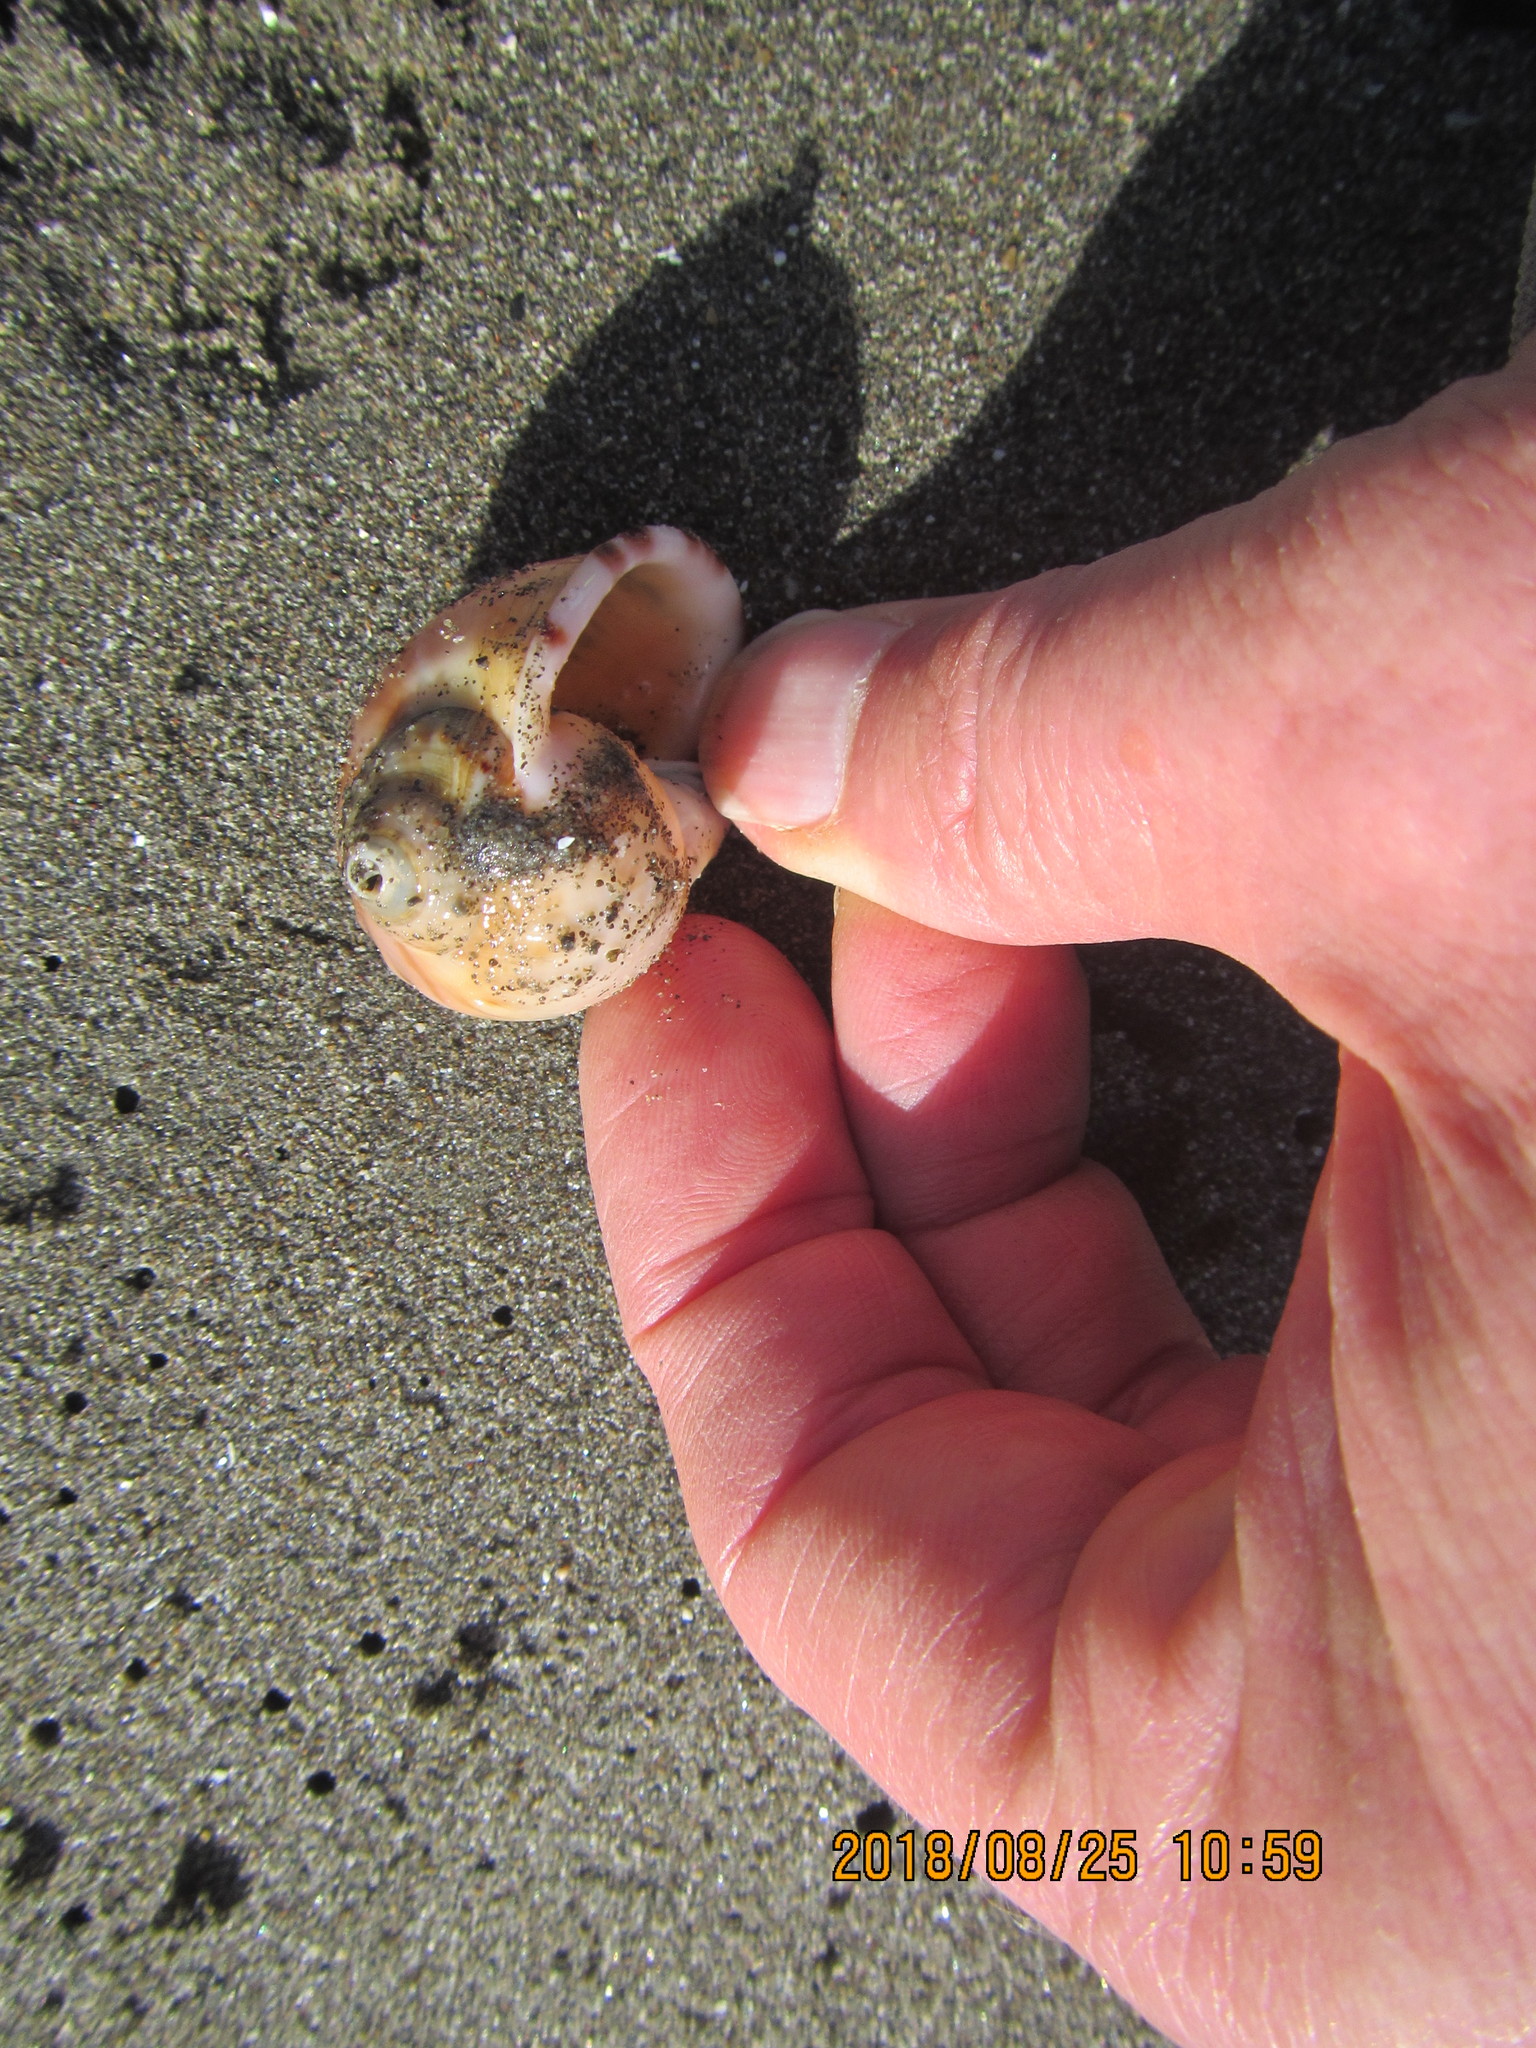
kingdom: Animalia
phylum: Mollusca
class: Gastropoda
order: Littorinimorpha
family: Cassidae
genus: Semicassis
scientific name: Semicassis pyrum
